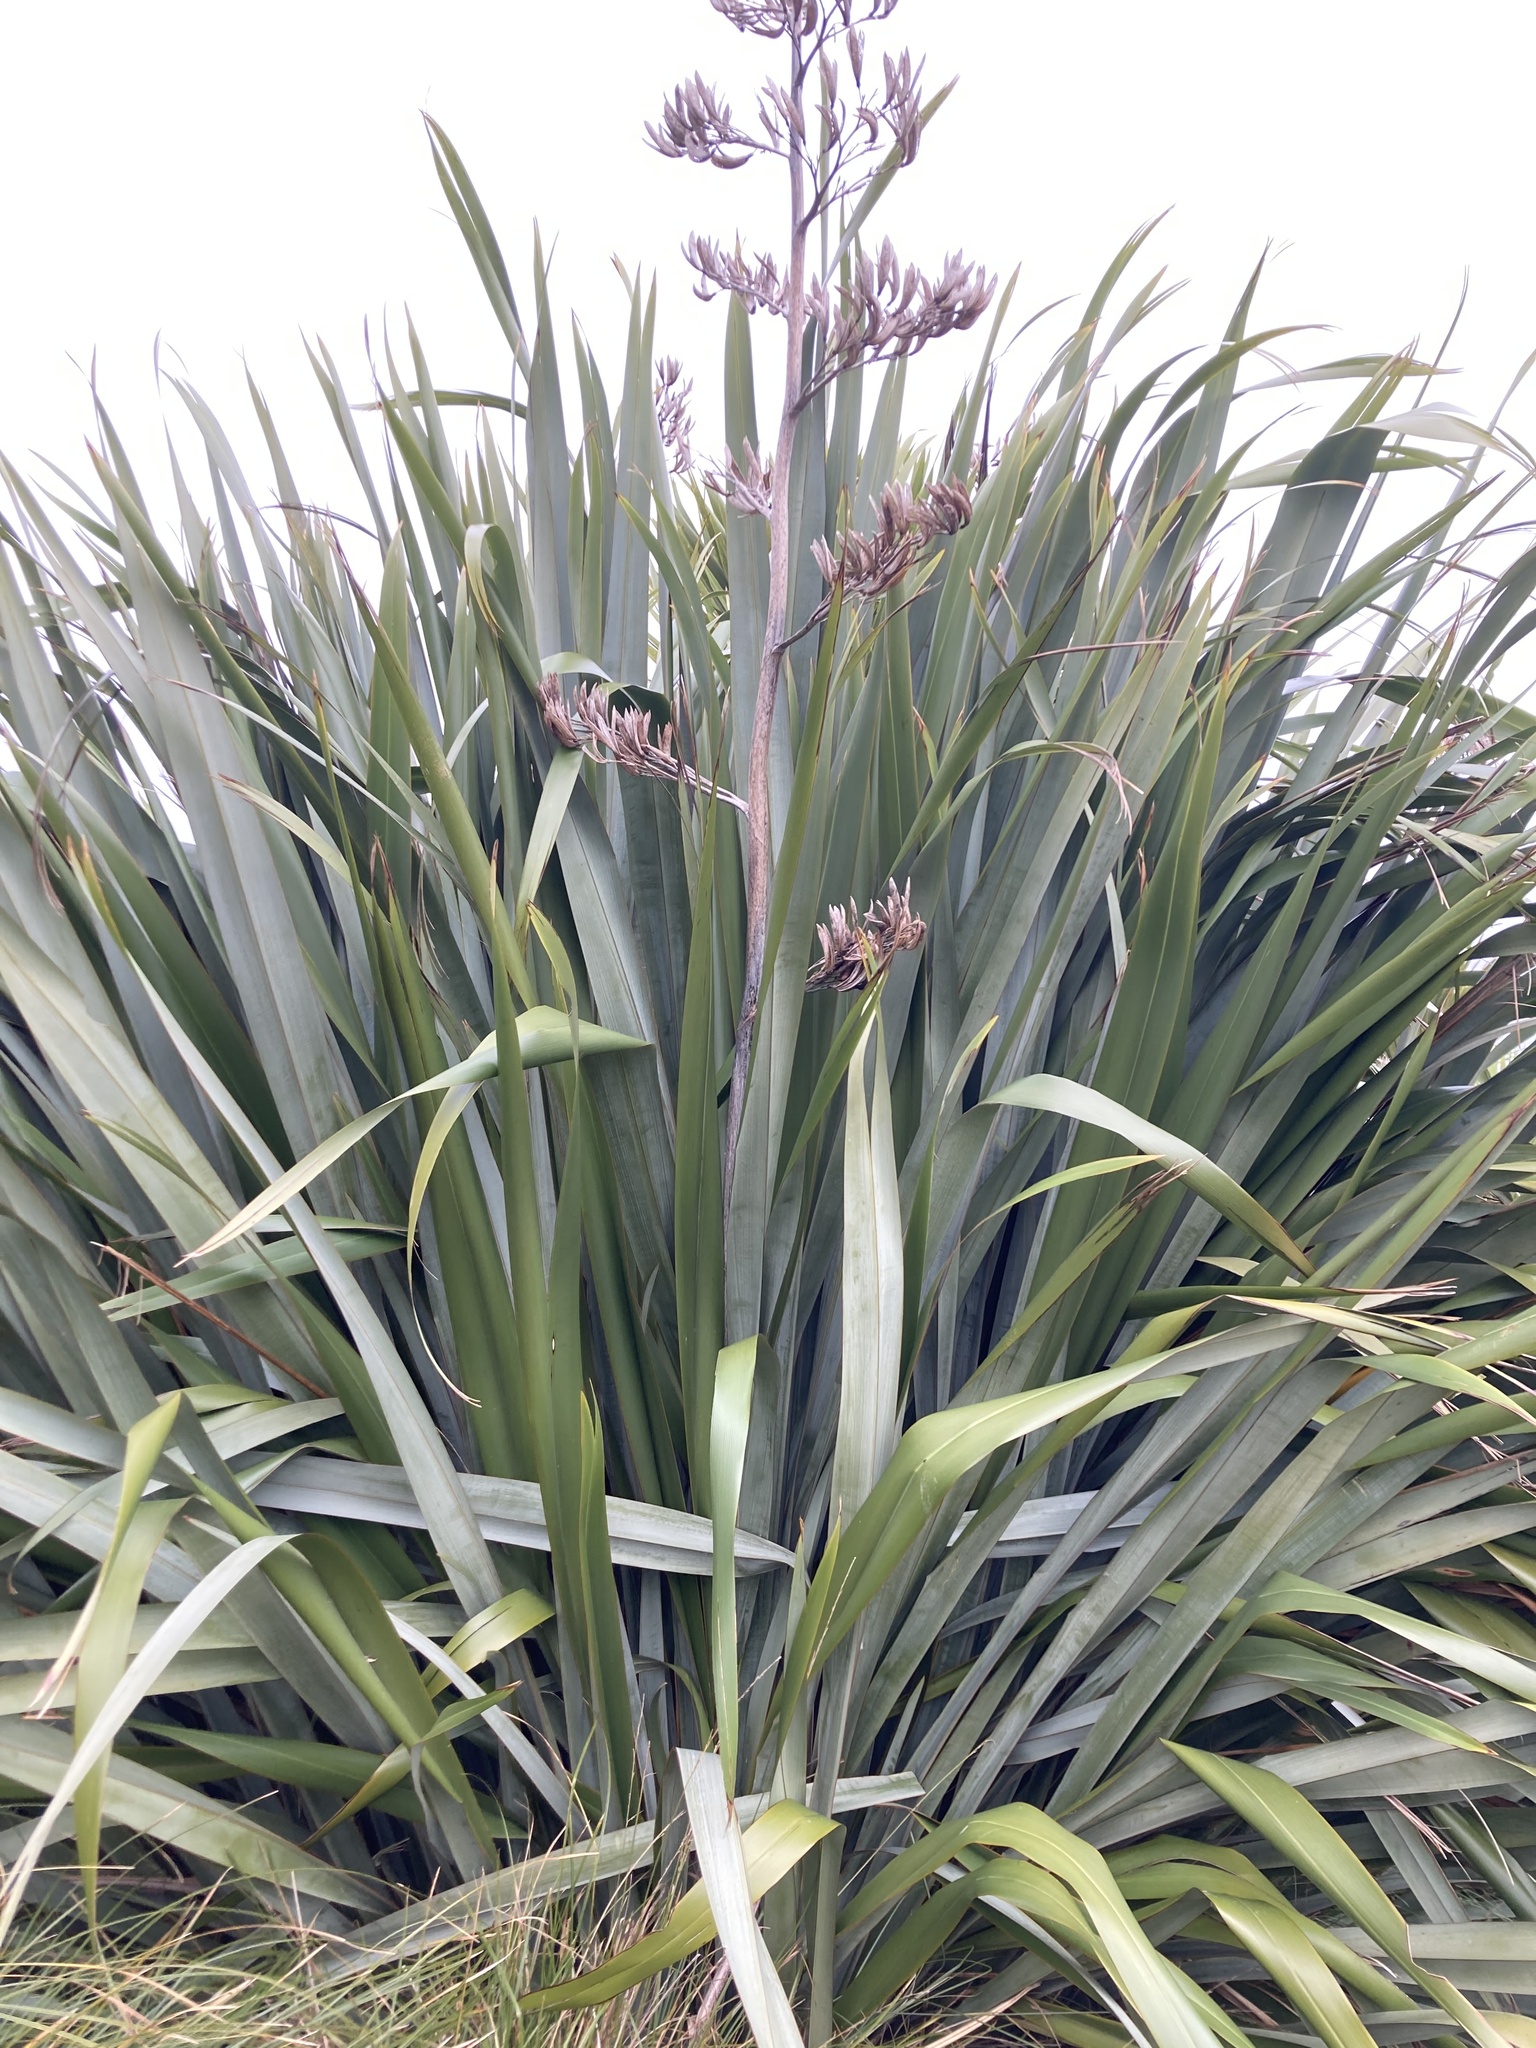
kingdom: Plantae
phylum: Tracheophyta
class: Liliopsida
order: Asparagales
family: Asphodelaceae
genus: Phormium
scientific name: Phormium tenax
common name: New zealand flax
